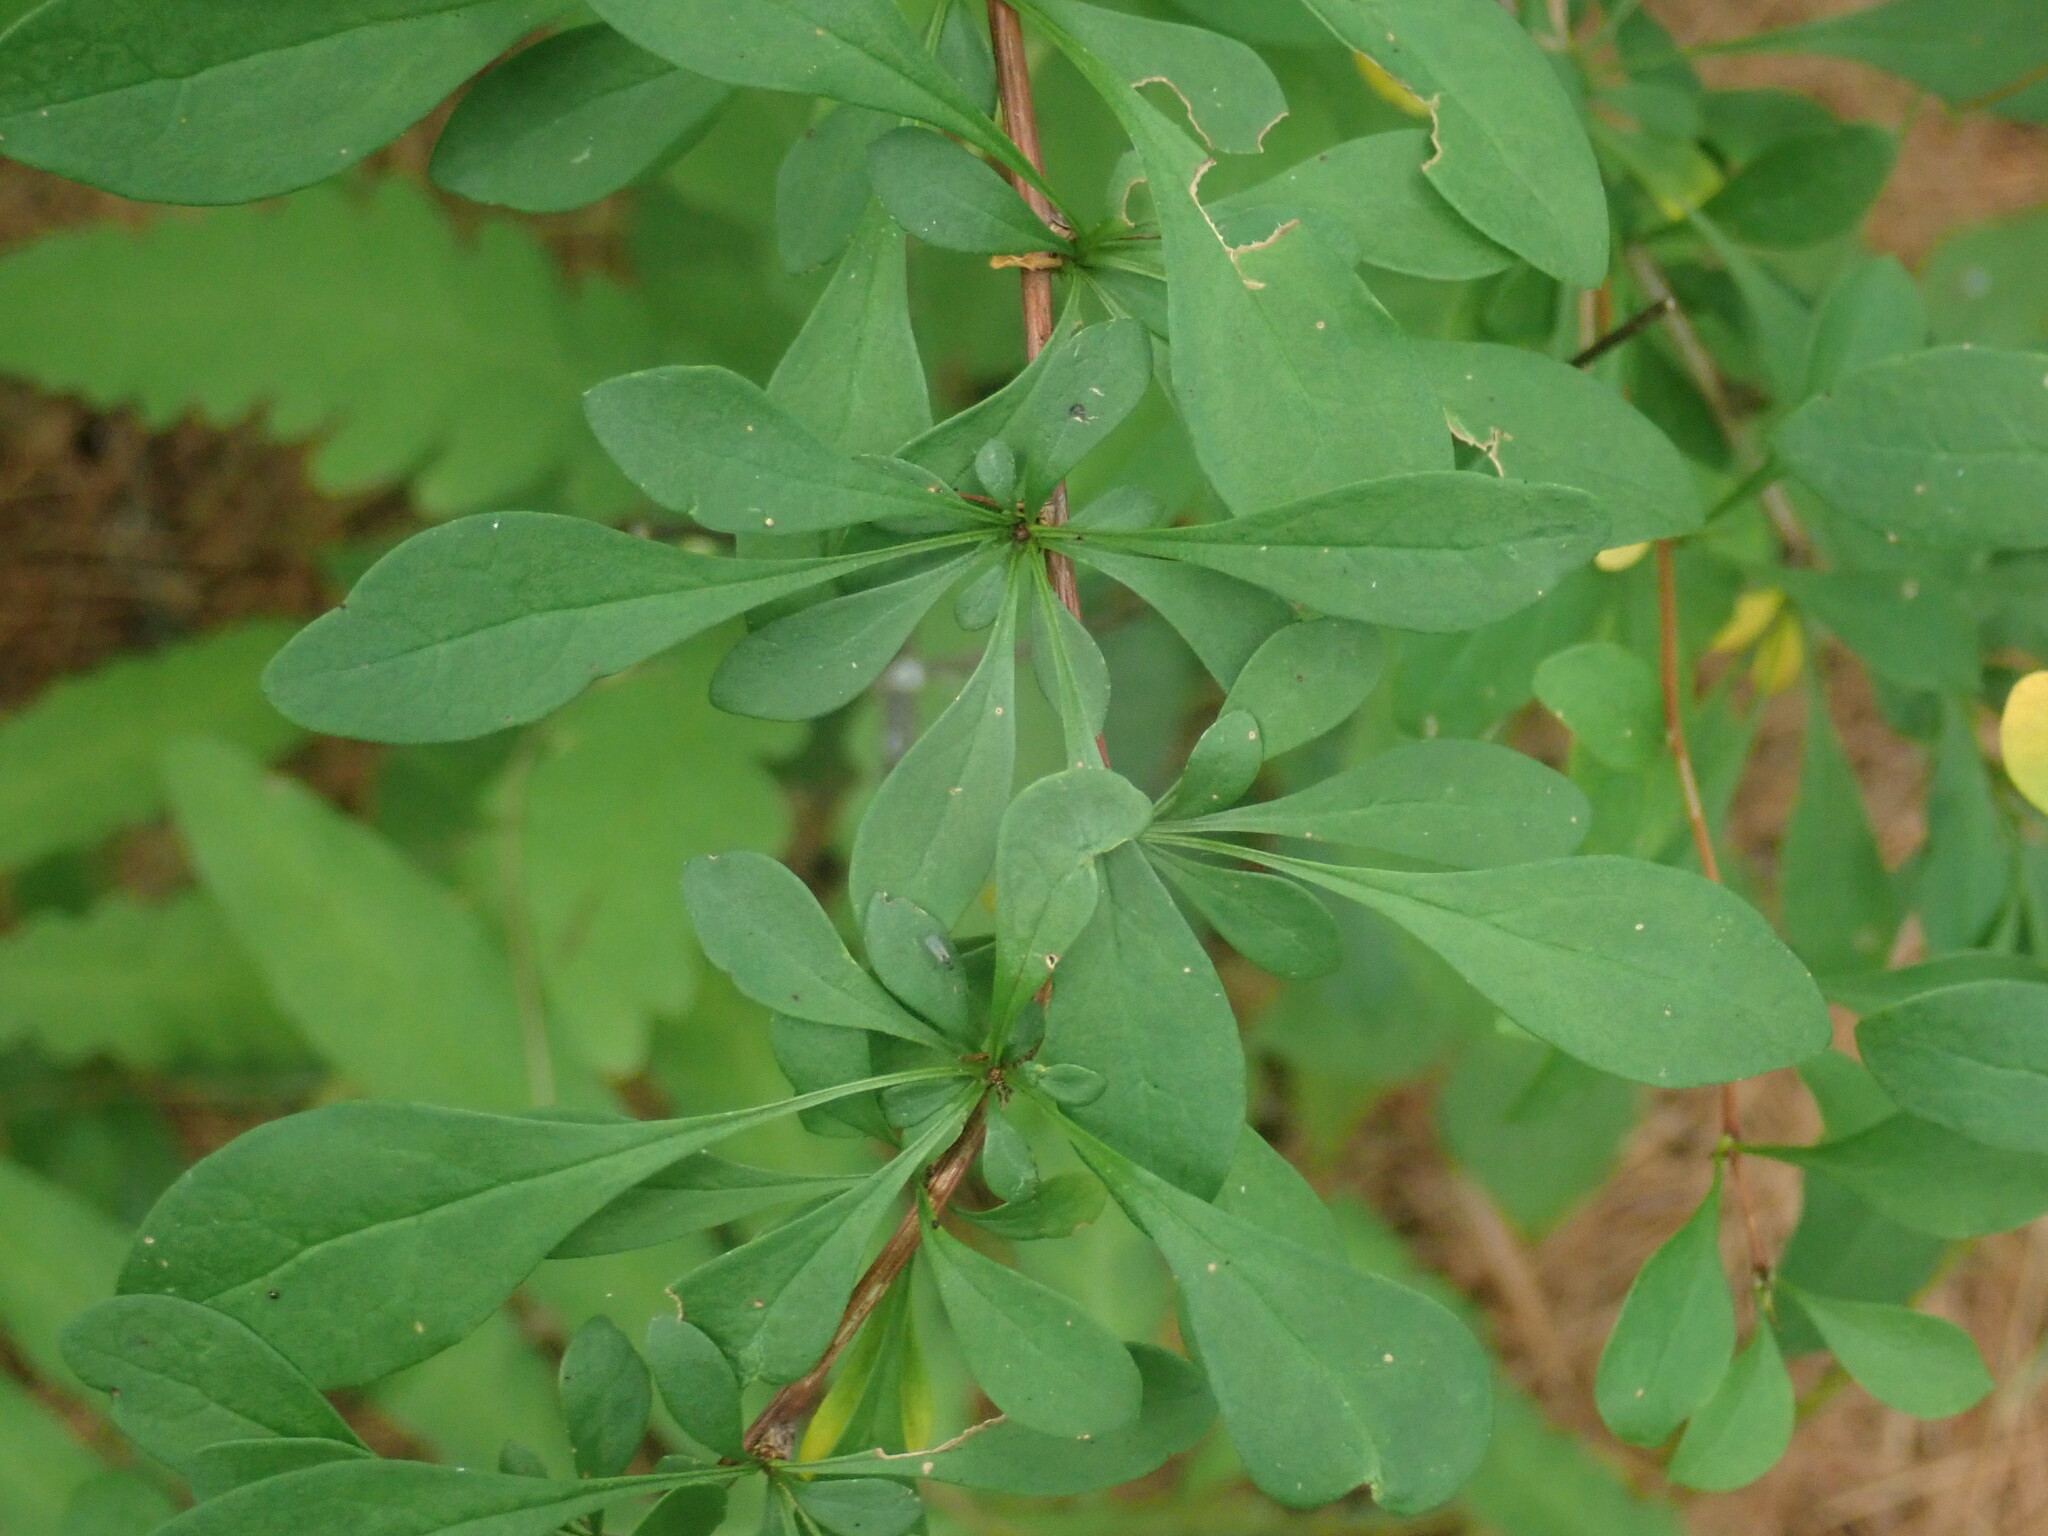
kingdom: Plantae
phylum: Tracheophyta
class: Magnoliopsida
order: Ranunculales
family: Berberidaceae
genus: Berberis
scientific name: Berberis thunbergii
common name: Japanese barberry
